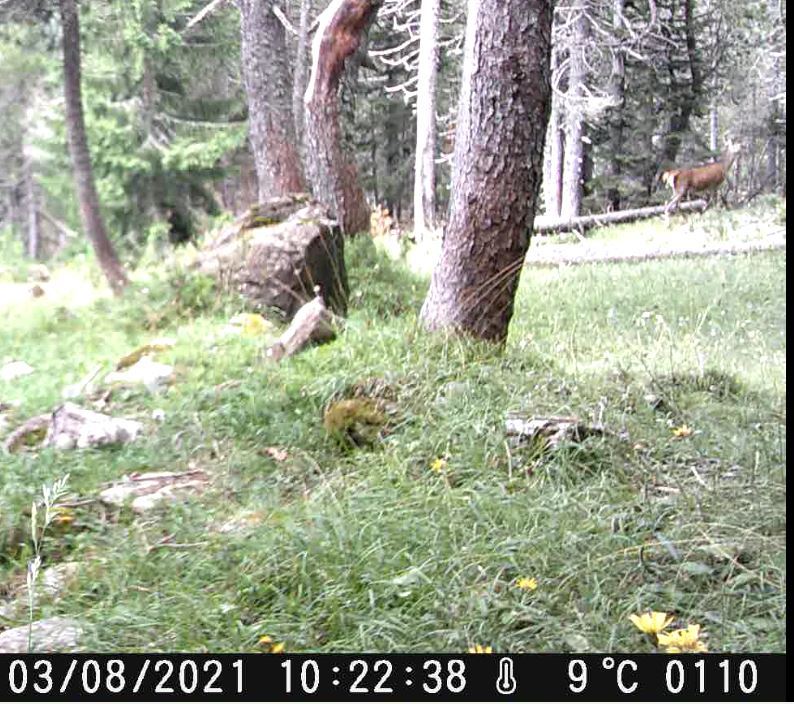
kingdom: Animalia
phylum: Chordata
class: Mammalia
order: Artiodactyla
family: Cervidae
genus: Cervus
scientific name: Cervus elaphus
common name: Red deer
